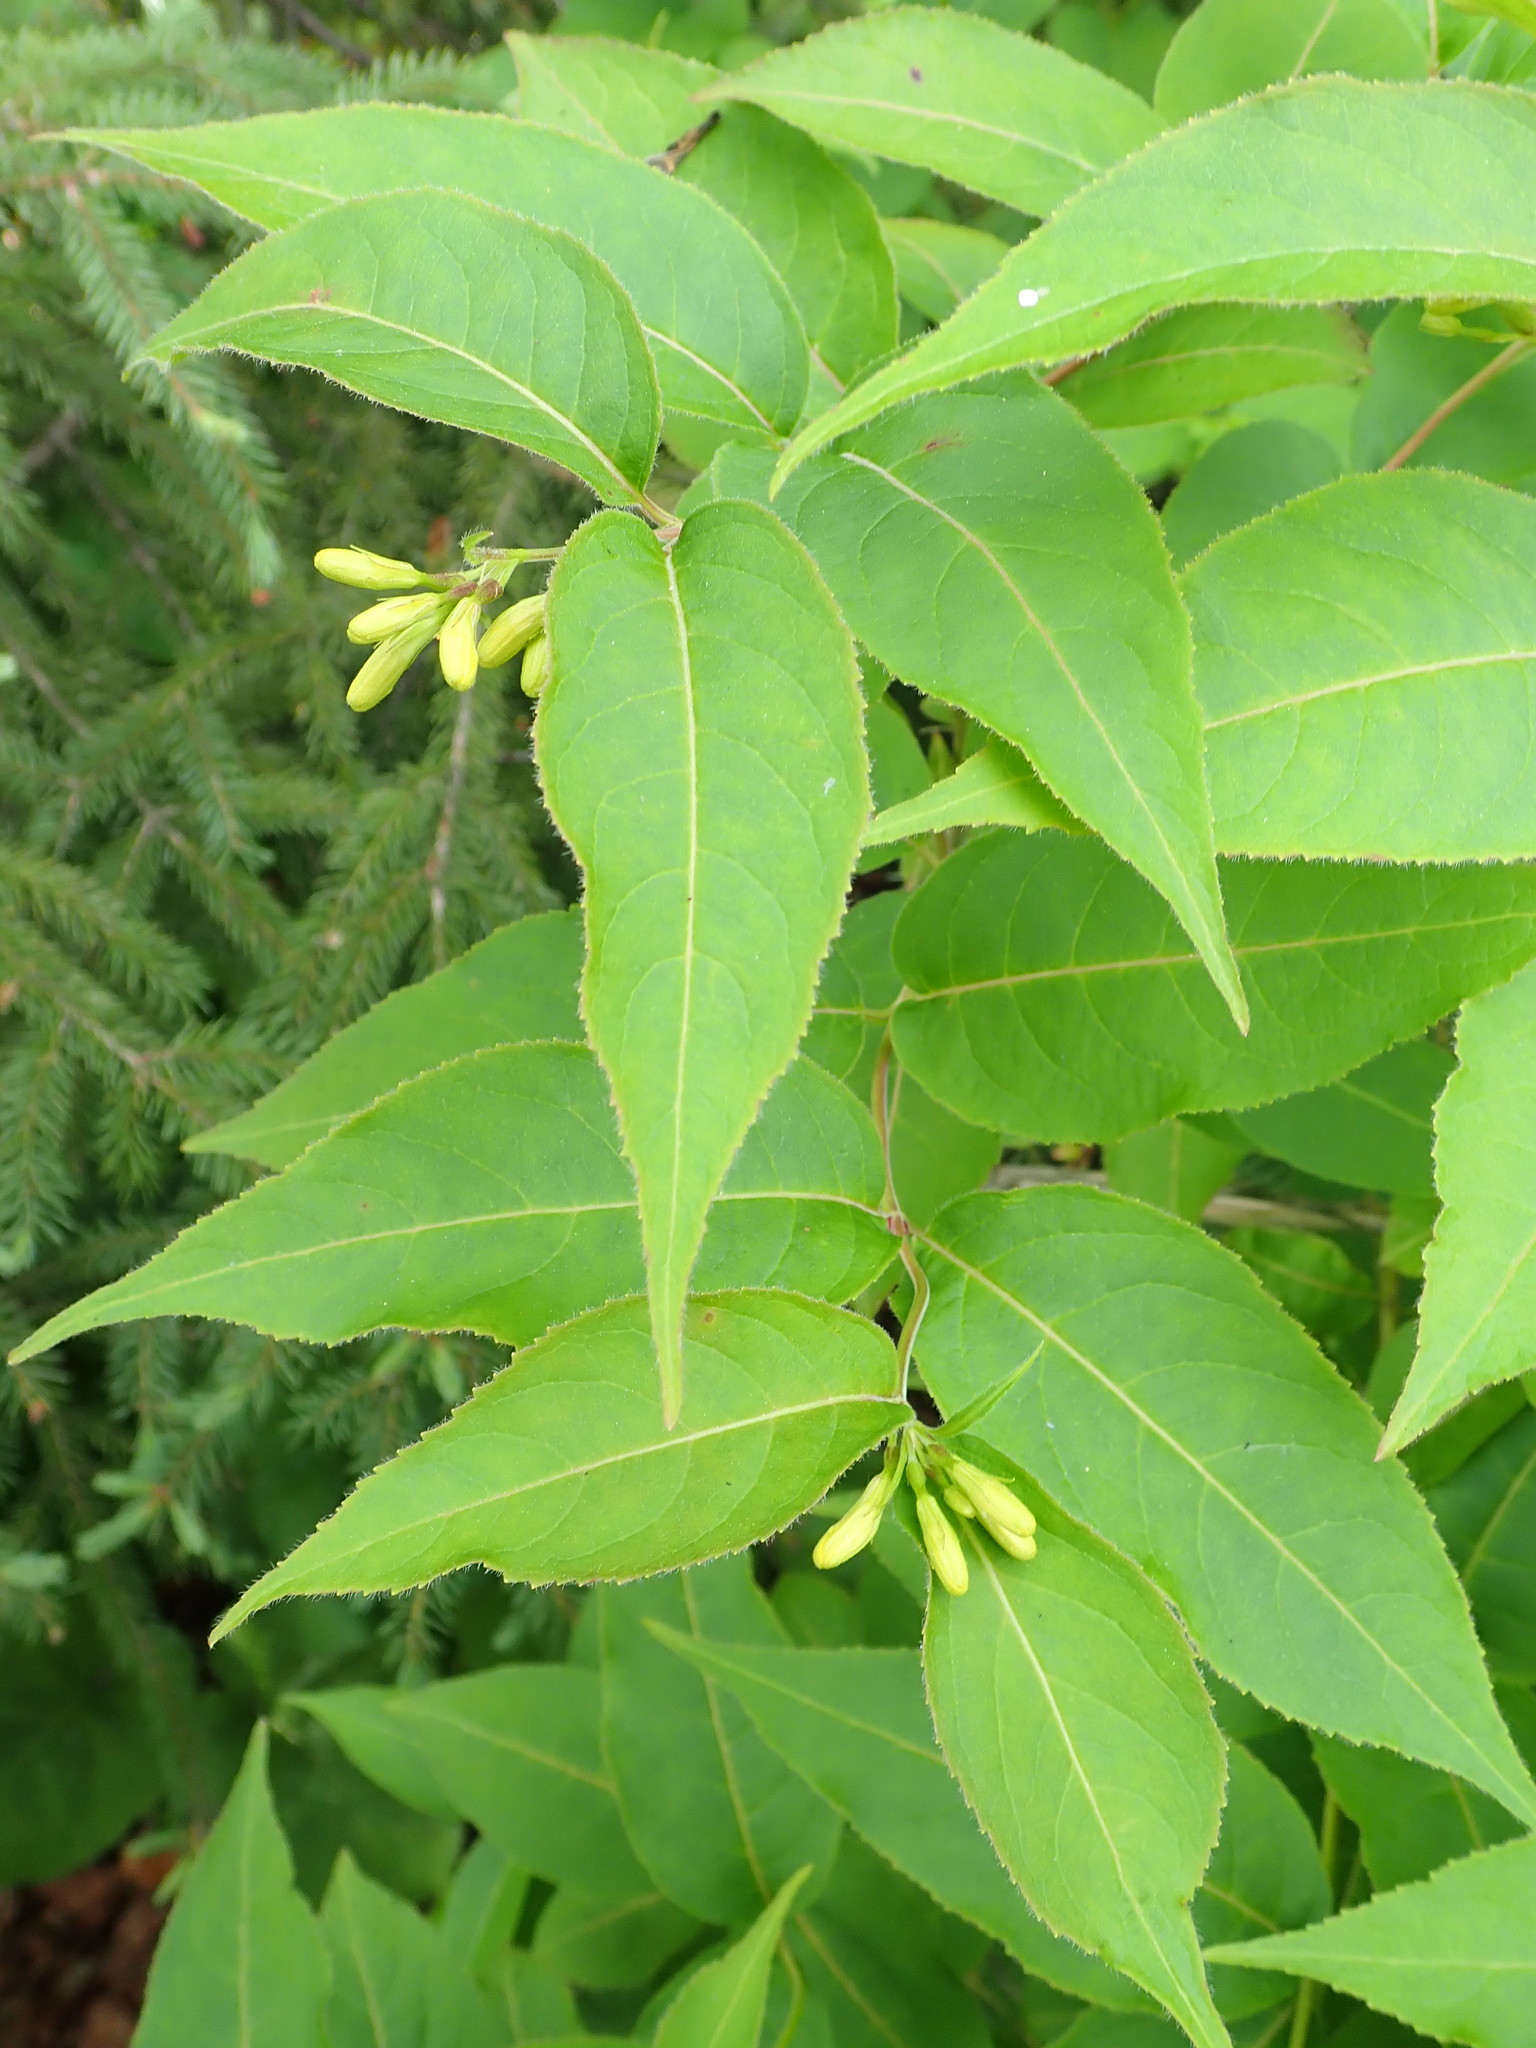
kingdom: Plantae
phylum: Tracheophyta
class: Magnoliopsida
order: Dipsacales
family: Caprifoliaceae
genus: Diervilla
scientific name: Diervilla lonicera
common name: Bush-honeysuckle
